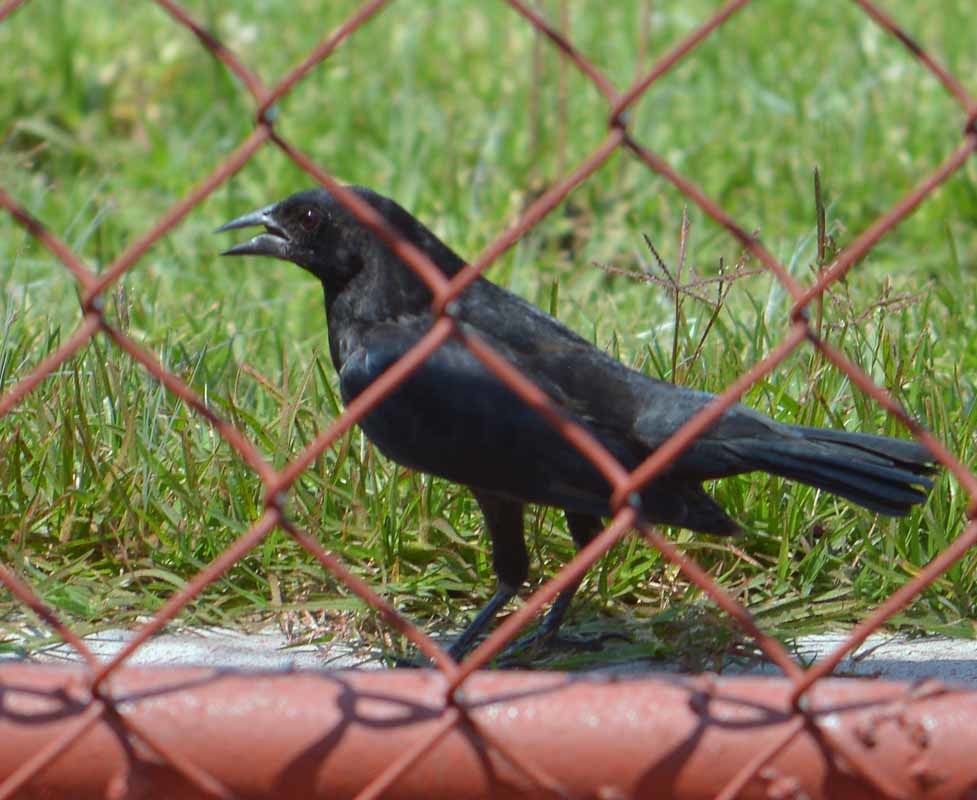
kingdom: Animalia
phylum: Chordata
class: Aves
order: Passeriformes
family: Icteridae
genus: Molothrus
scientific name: Molothrus aeneus
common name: Bronzed cowbird
